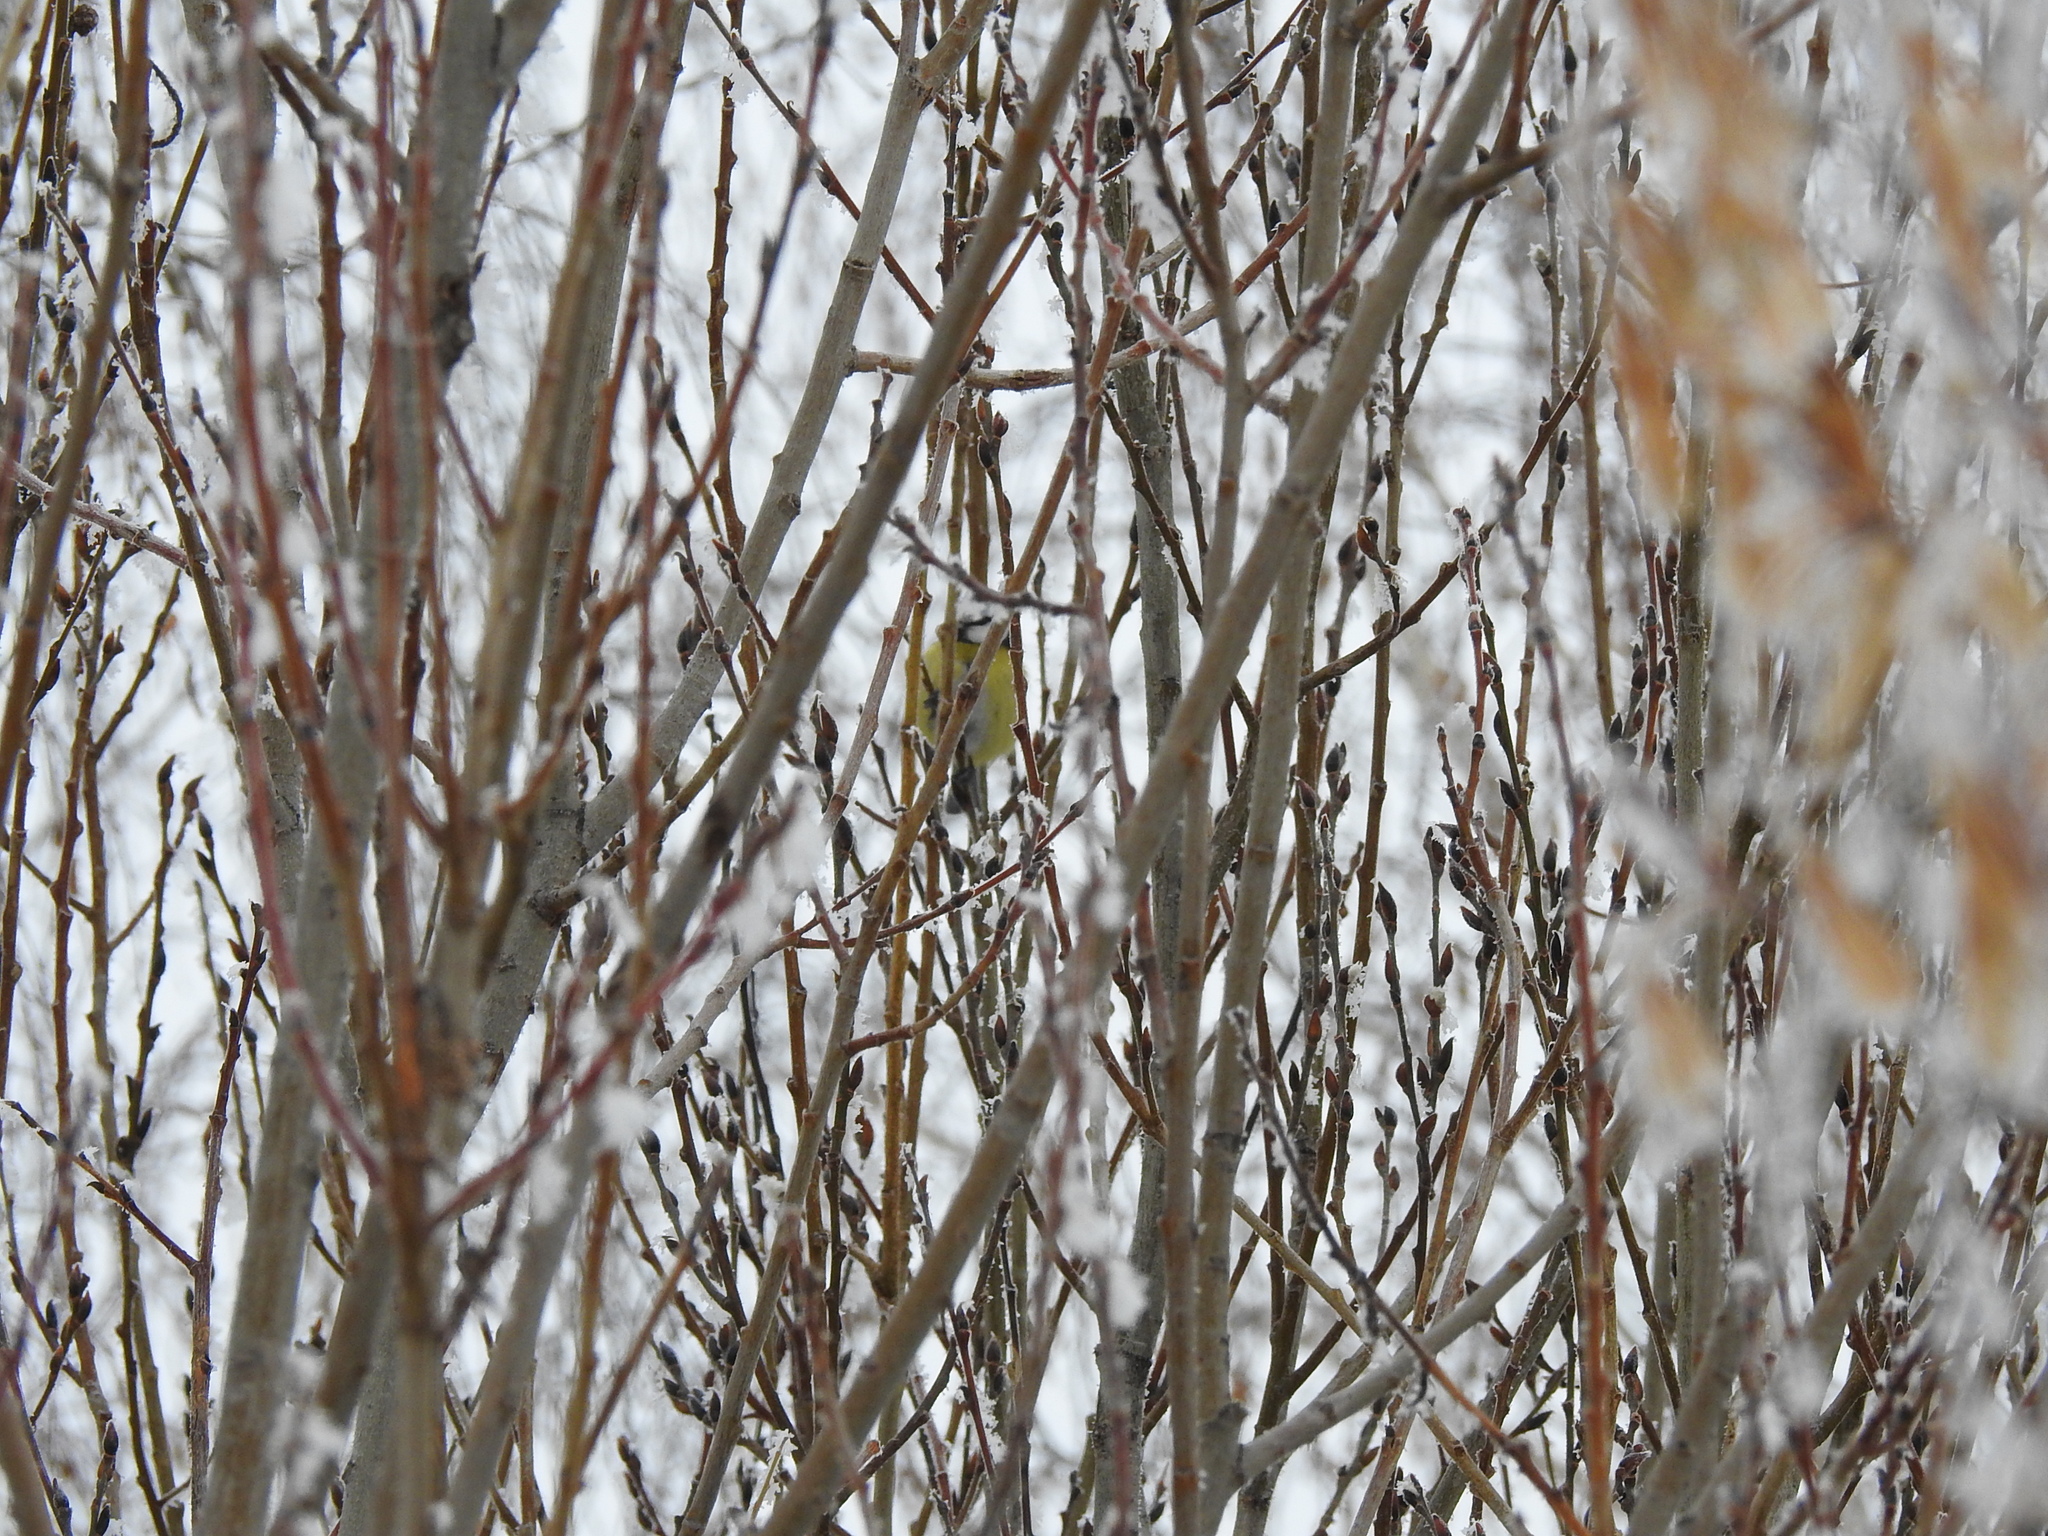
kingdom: Animalia
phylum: Chordata
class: Aves
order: Passeriformes
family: Paridae
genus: Cyanistes
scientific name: Cyanistes caeruleus
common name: Eurasian blue tit
